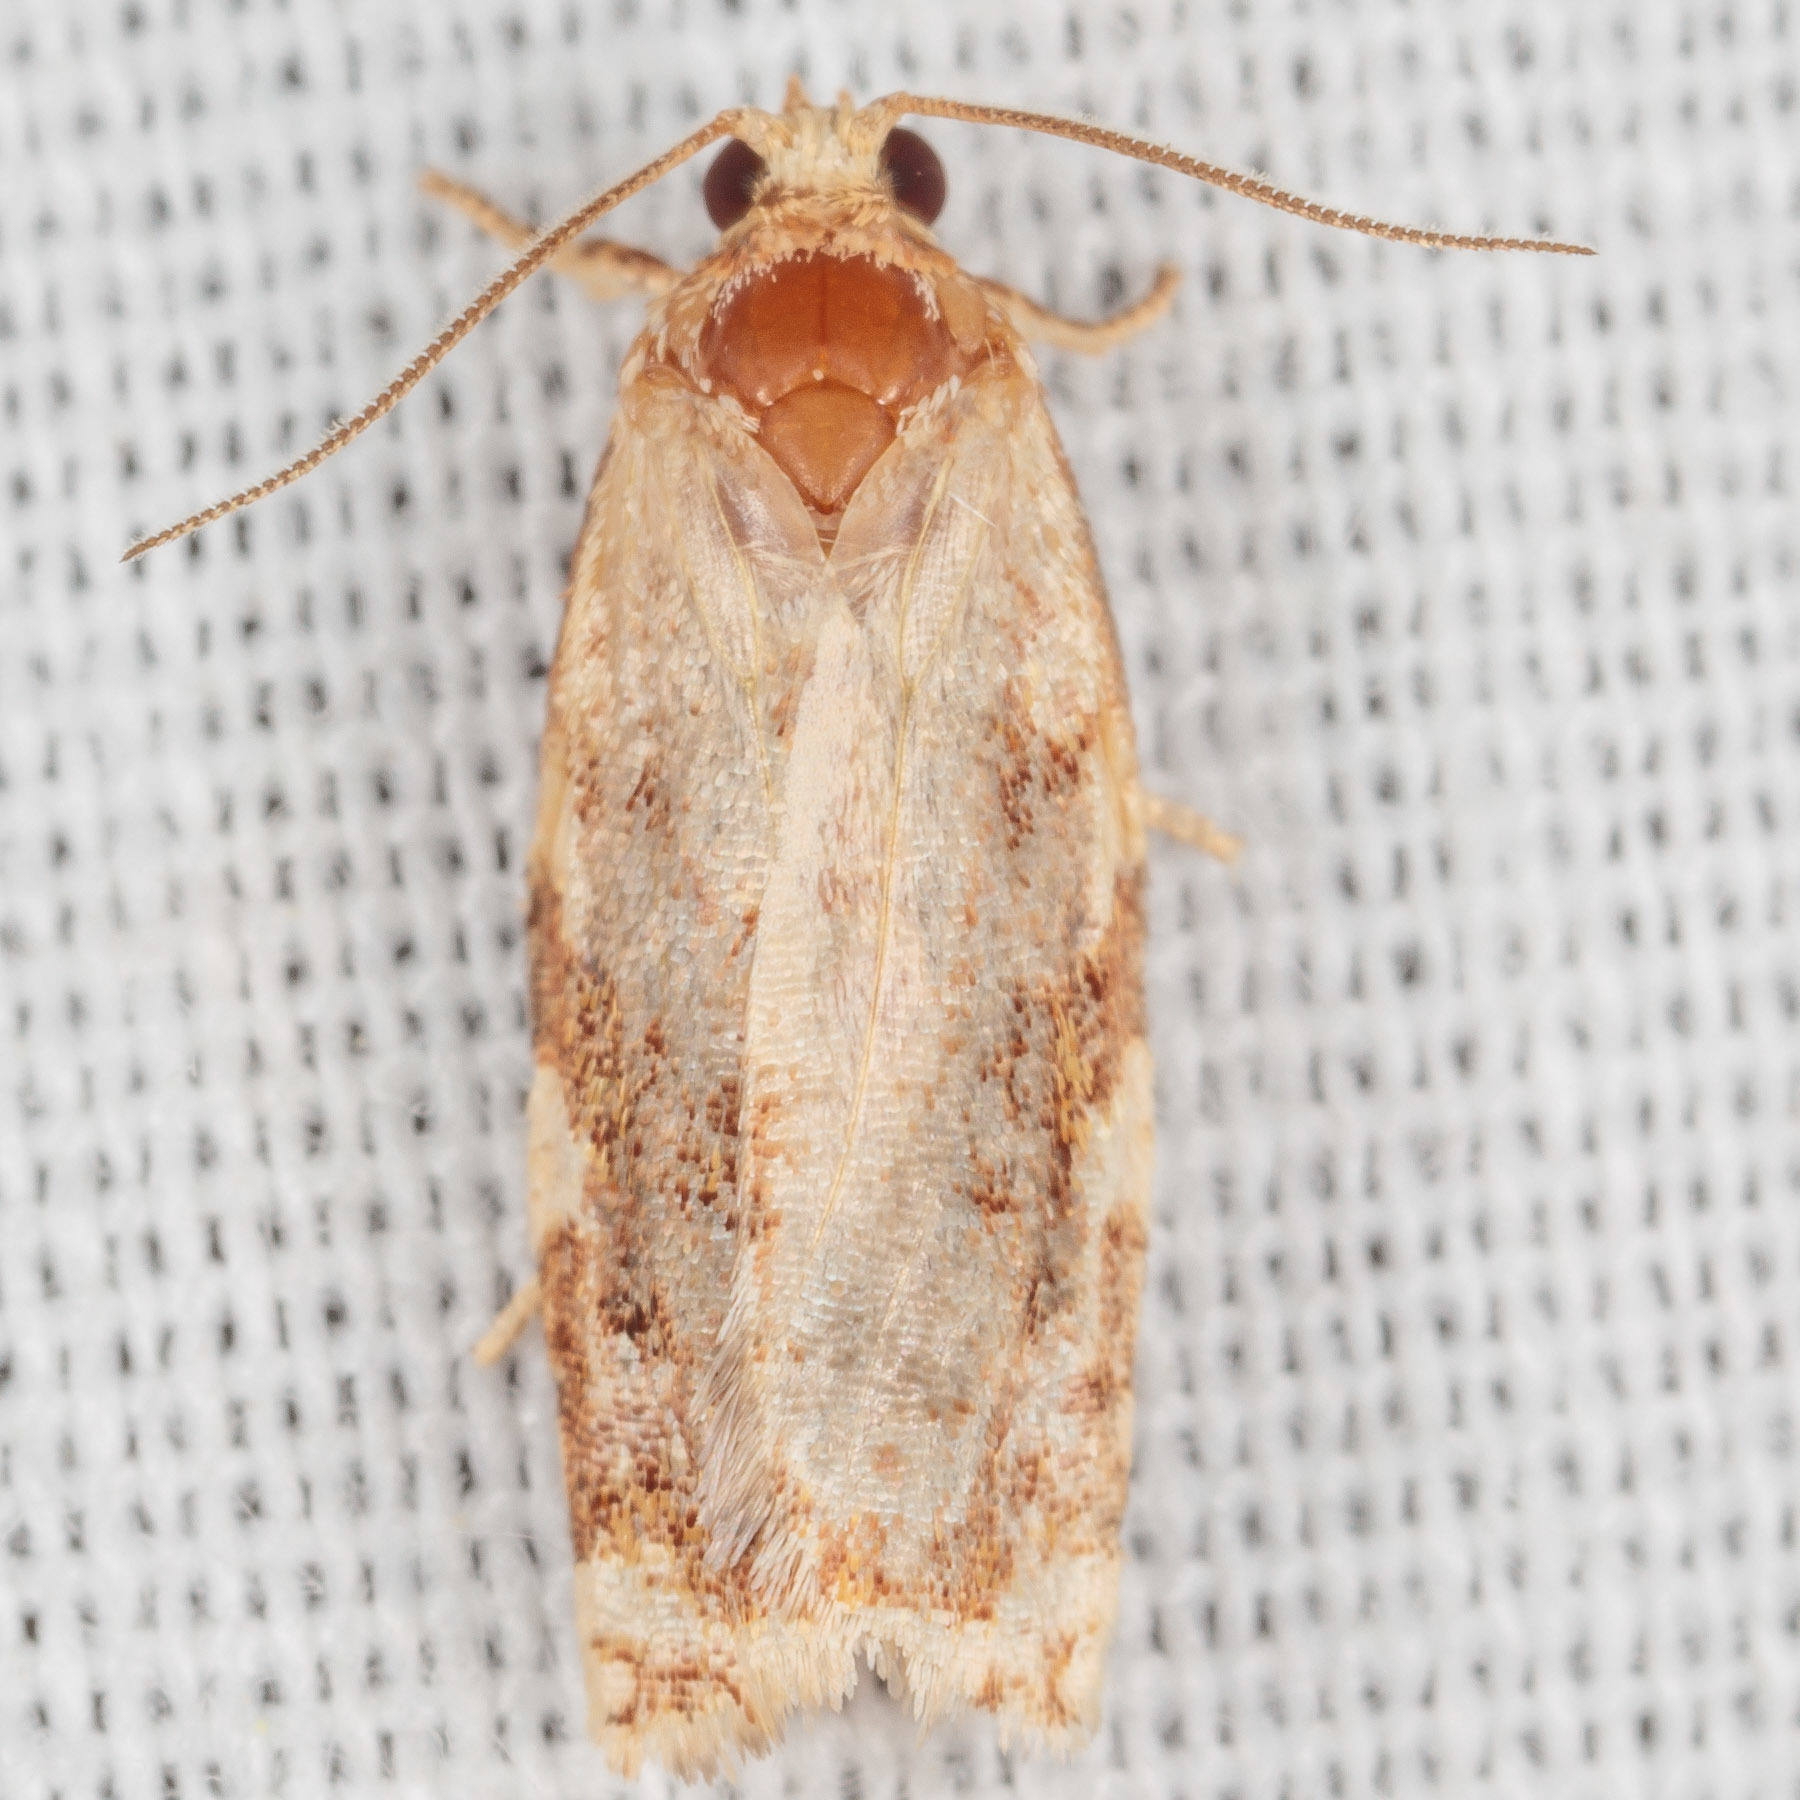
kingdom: Animalia
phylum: Arthropoda
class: Insecta
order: Lepidoptera
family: Tortricidae
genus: Archips
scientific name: Archips semiferanus
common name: Oak leafroller
